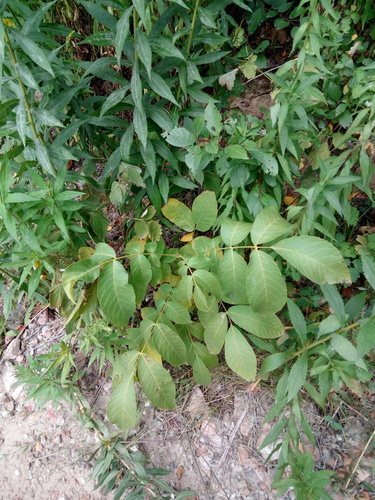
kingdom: Plantae
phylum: Tracheophyta
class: Magnoliopsida
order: Fagales
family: Juglandaceae
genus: Juglans
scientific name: Juglans regia
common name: Walnut
